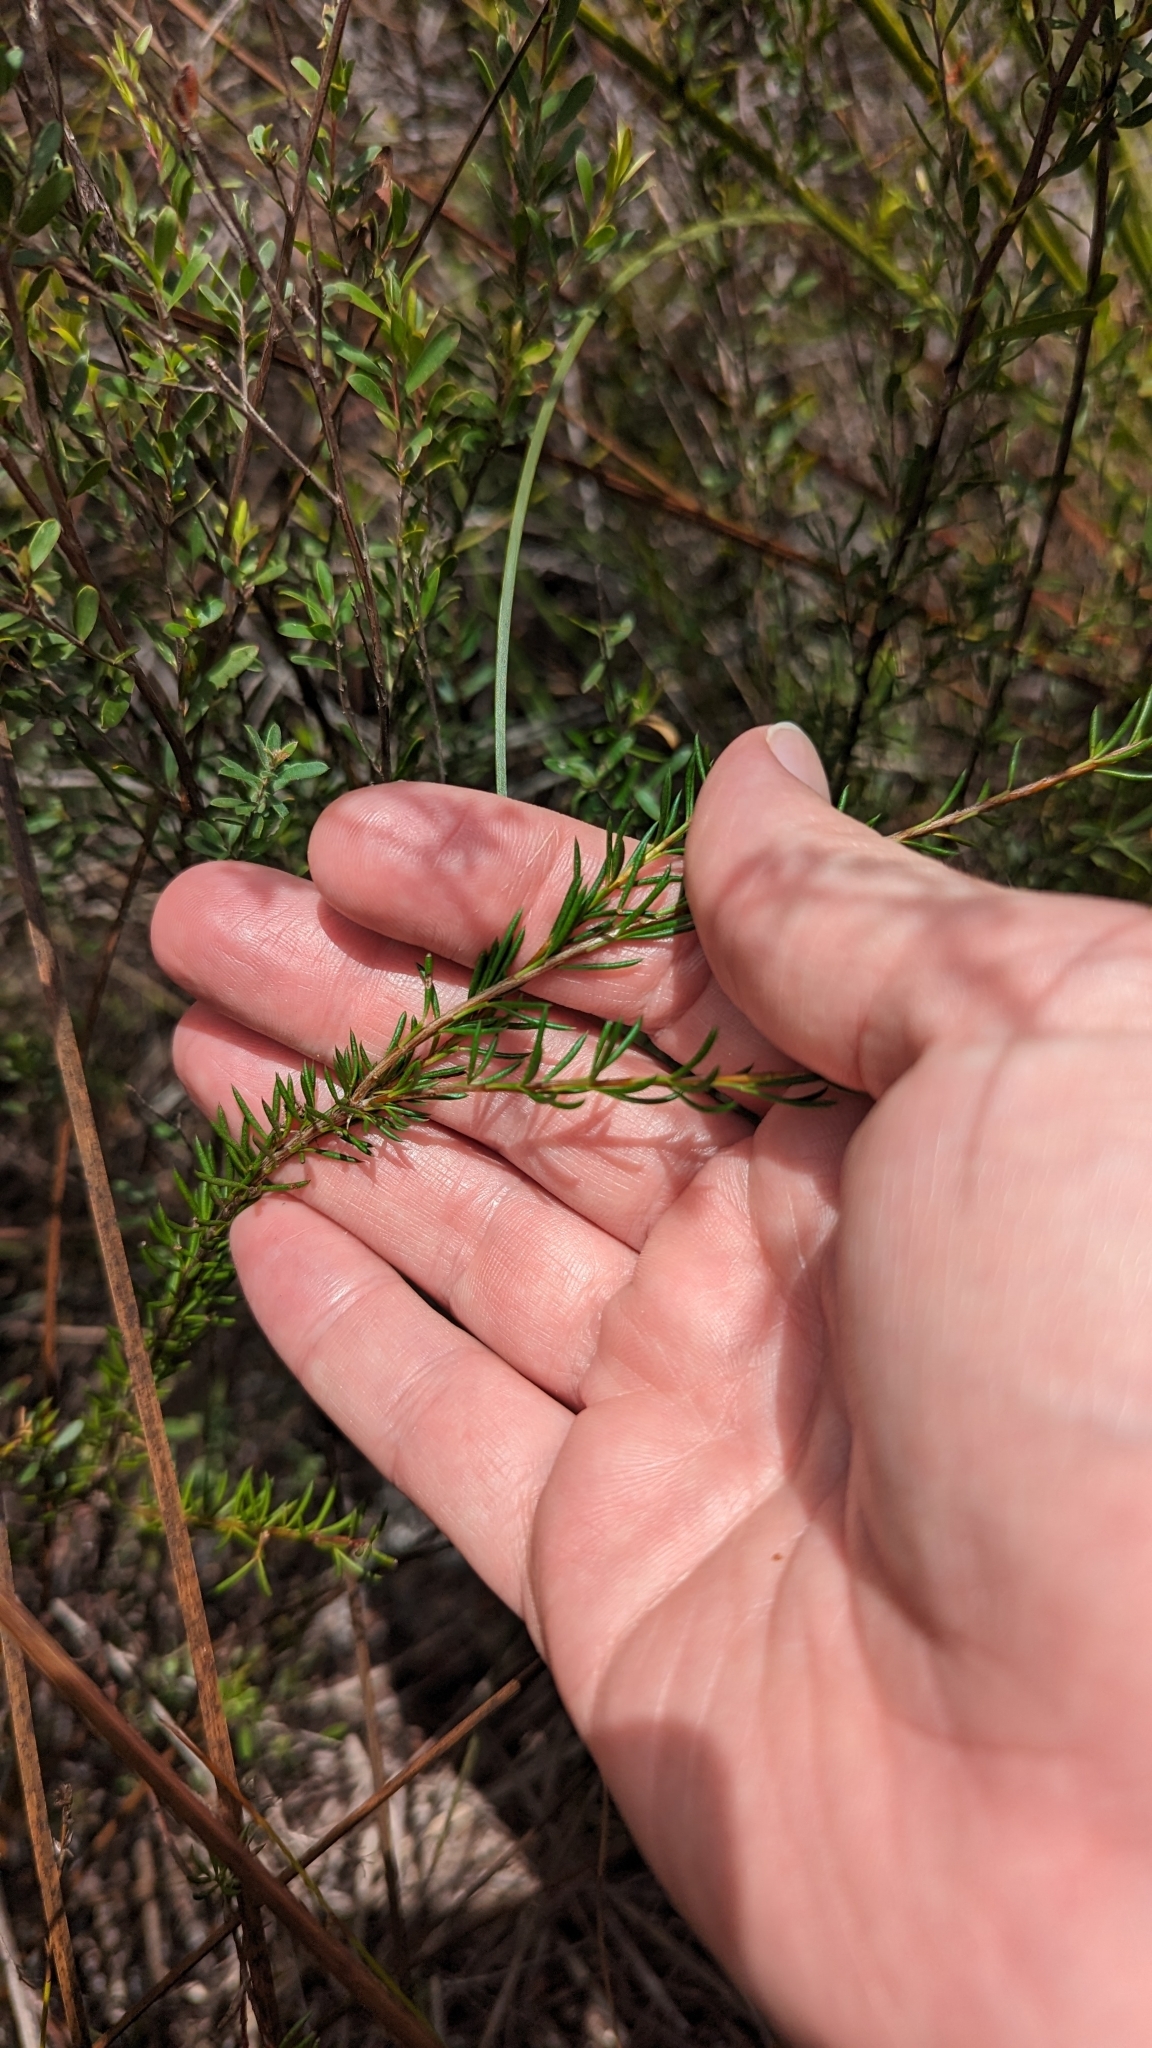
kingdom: Plantae
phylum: Tracheophyta
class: Magnoliopsida
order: Sapindales
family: Rutaceae
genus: Boronia
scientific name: Boronia falcifolia
